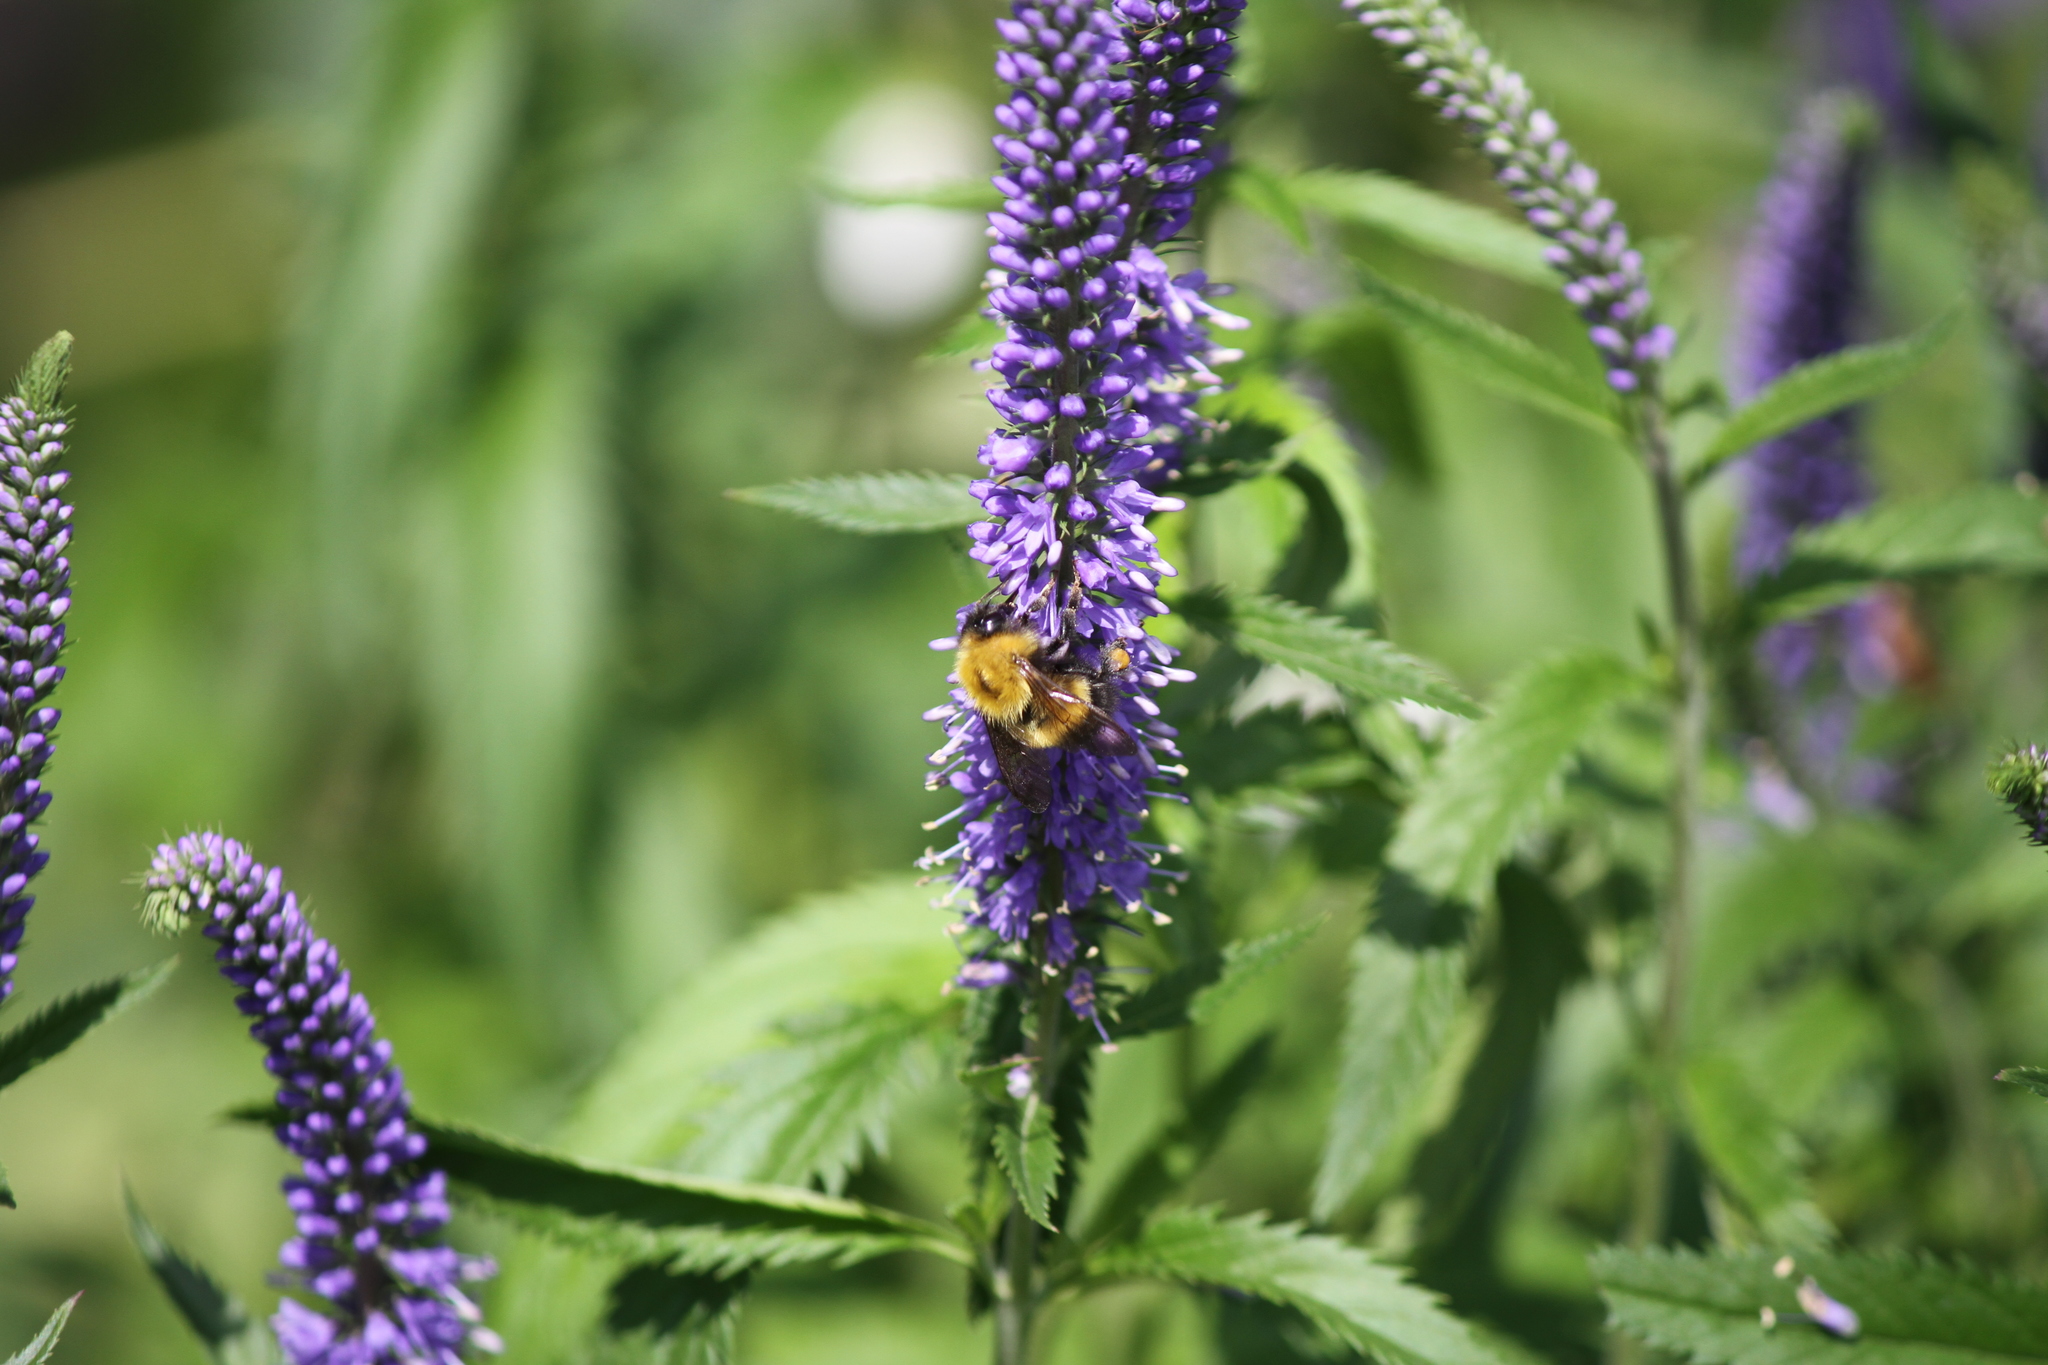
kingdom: Animalia
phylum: Arthropoda
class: Insecta
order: Hymenoptera
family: Apidae
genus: Bombus
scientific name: Bombus perplexus
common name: Confusing bumble bee
